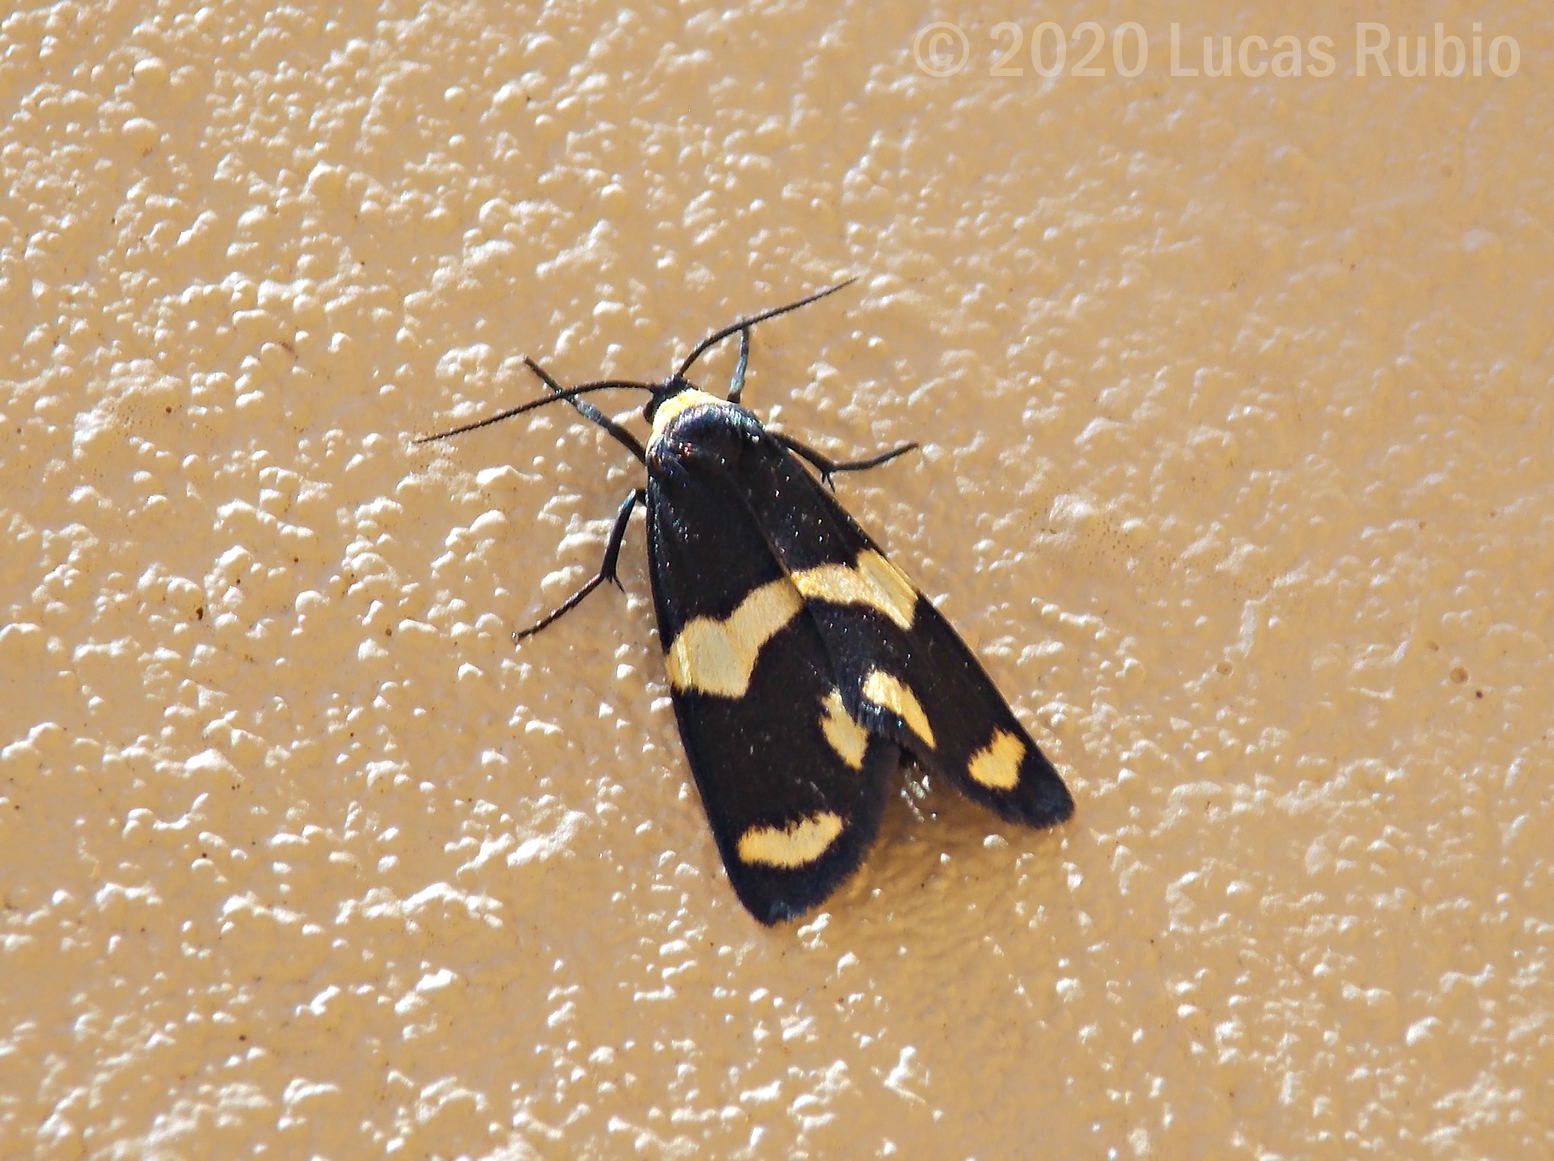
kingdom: Animalia
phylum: Arthropoda
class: Insecta
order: Lepidoptera
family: Erebidae
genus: Eudesmia
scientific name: Eudesmia
